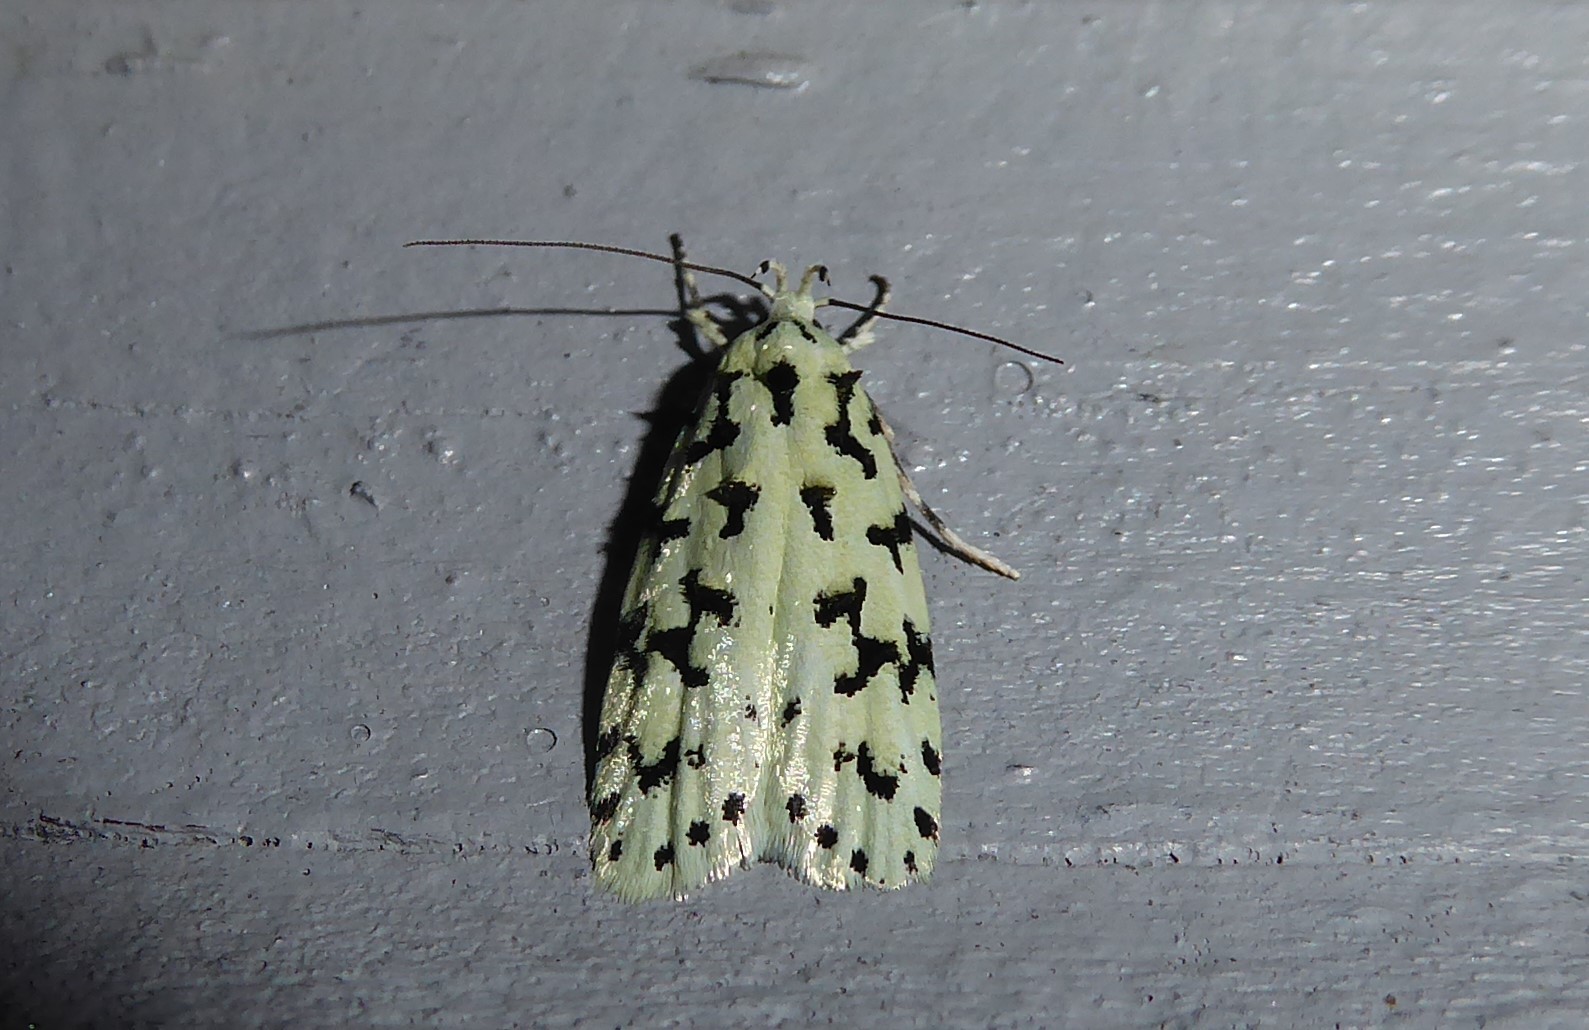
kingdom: Animalia
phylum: Arthropoda
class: Insecta
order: Lepidoptera
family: Oecophoridae
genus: Izatha
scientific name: Izatha huttoni
